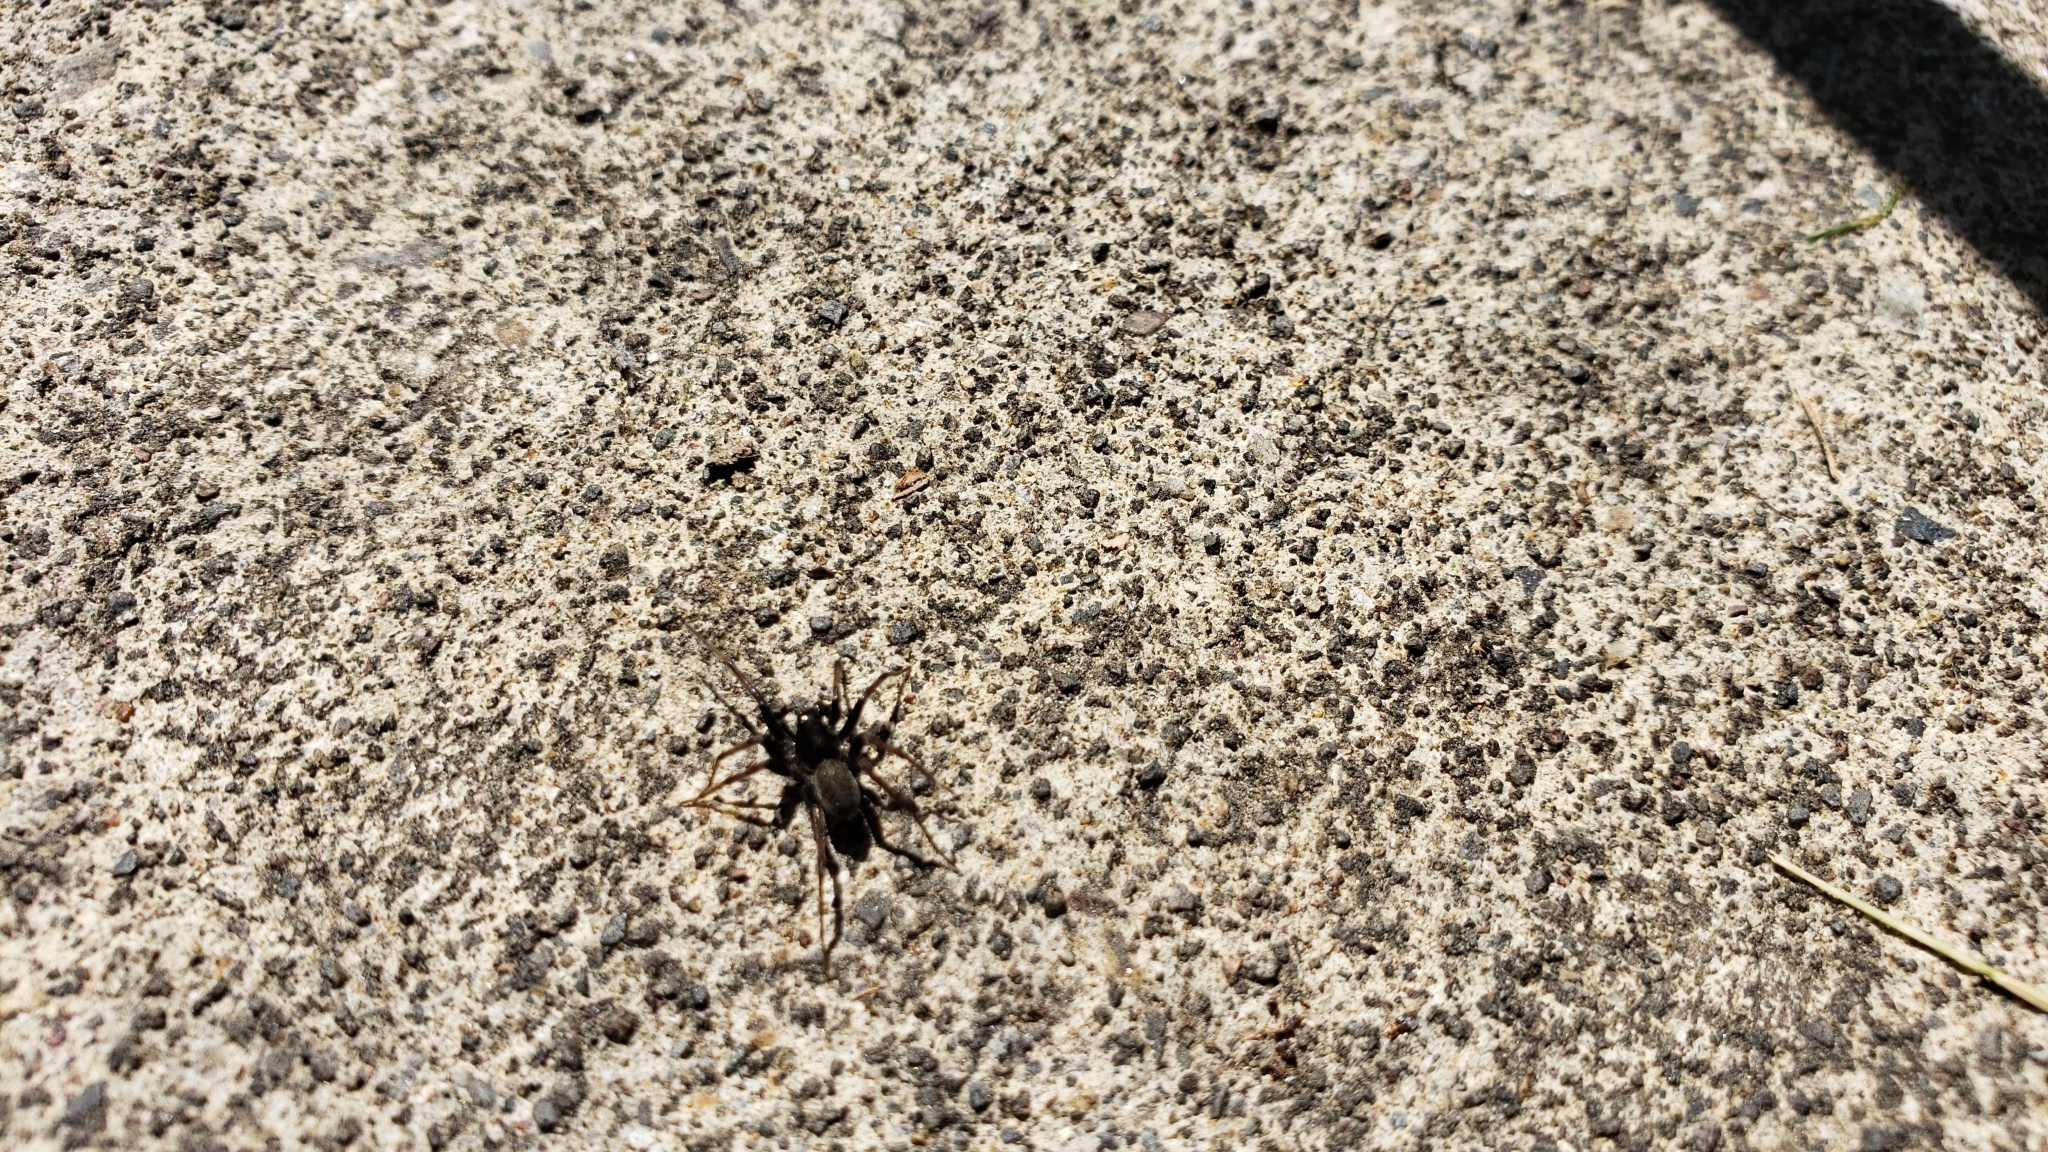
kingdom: Animalia
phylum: Arthropoda
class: Arachnida
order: Araneae
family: Lycosidae
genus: Pardosa
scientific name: Pardosa moesta
